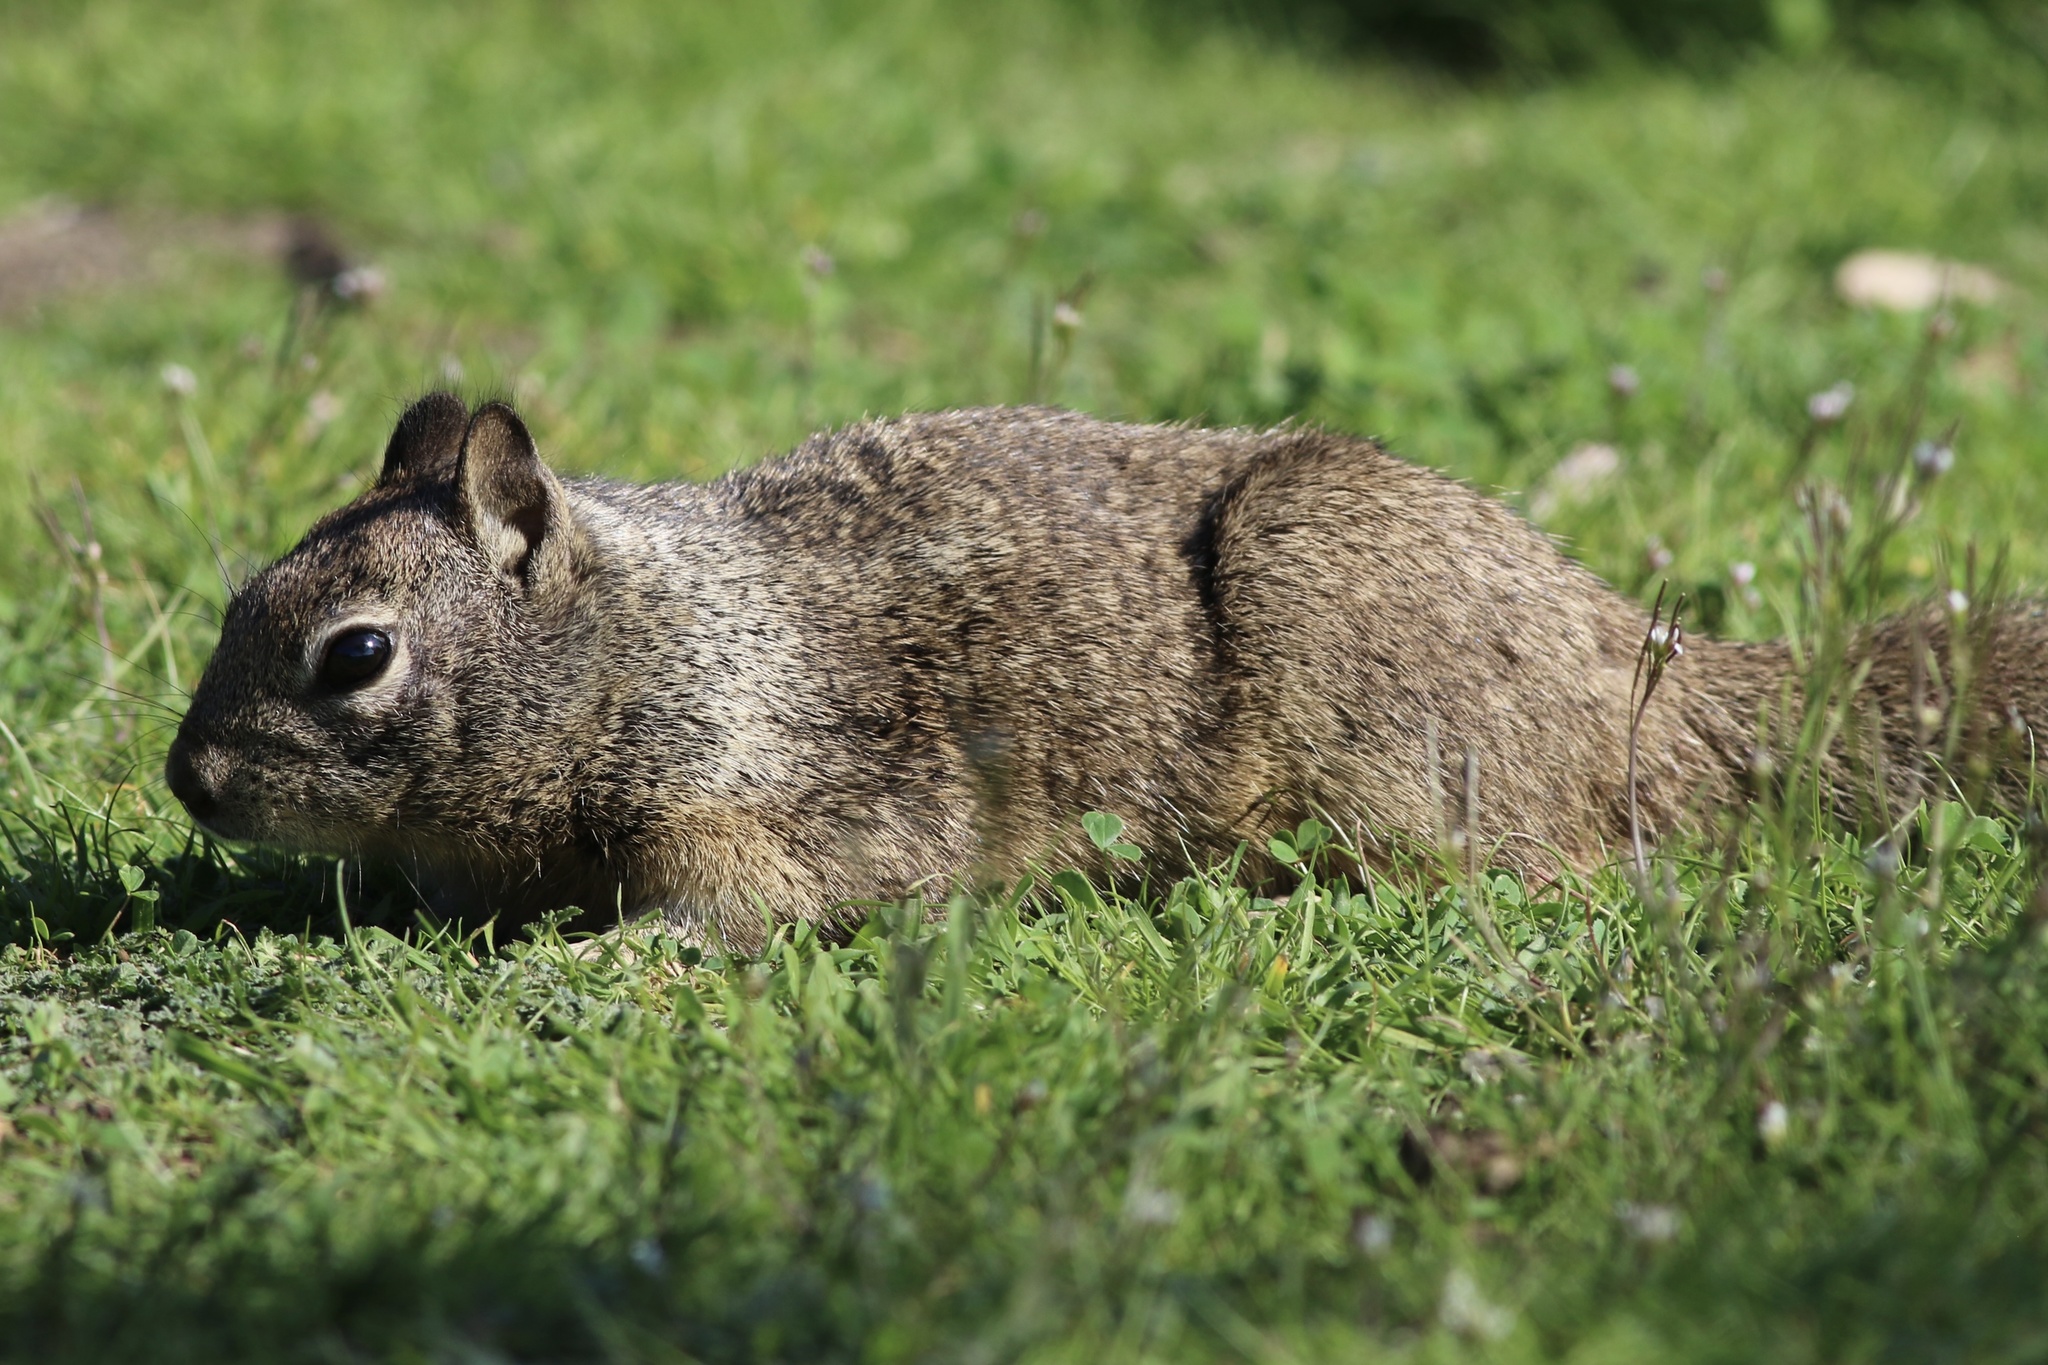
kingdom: Animalia
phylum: Chordata
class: Mammalia
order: Rodentia
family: Sciuridae
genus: Otospermophilus
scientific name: Otospermophilus beecheyi
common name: California ground squirrel
